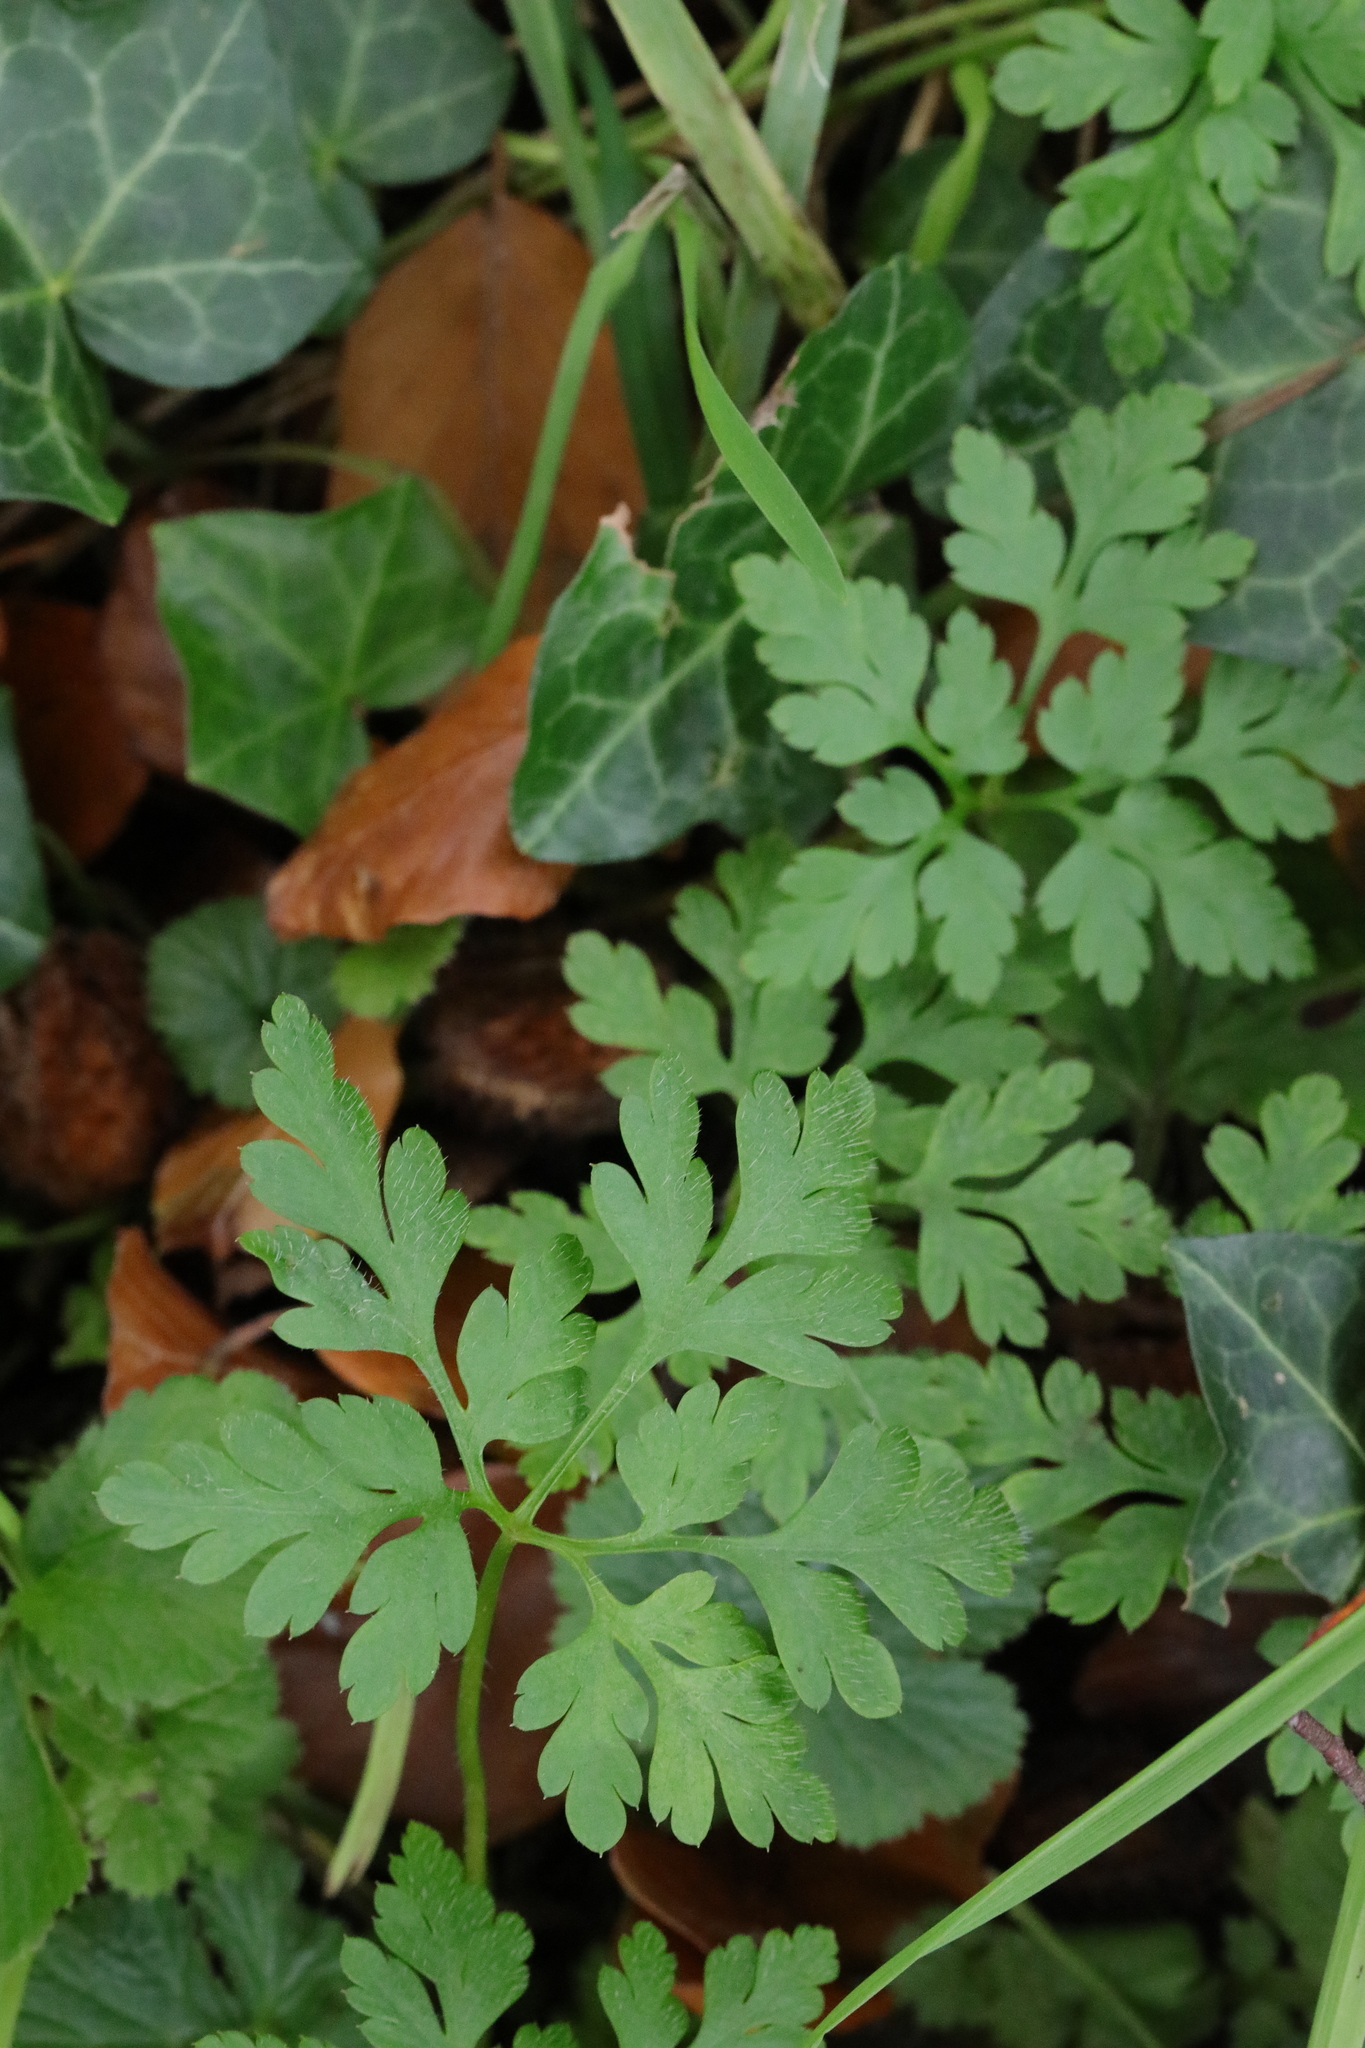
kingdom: Plantae
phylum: Tracheophyta
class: Magnoliopsida
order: Geraniales
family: Geraniaceae
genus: Geranium
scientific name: Geranium robertianum
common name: Herb-robert
